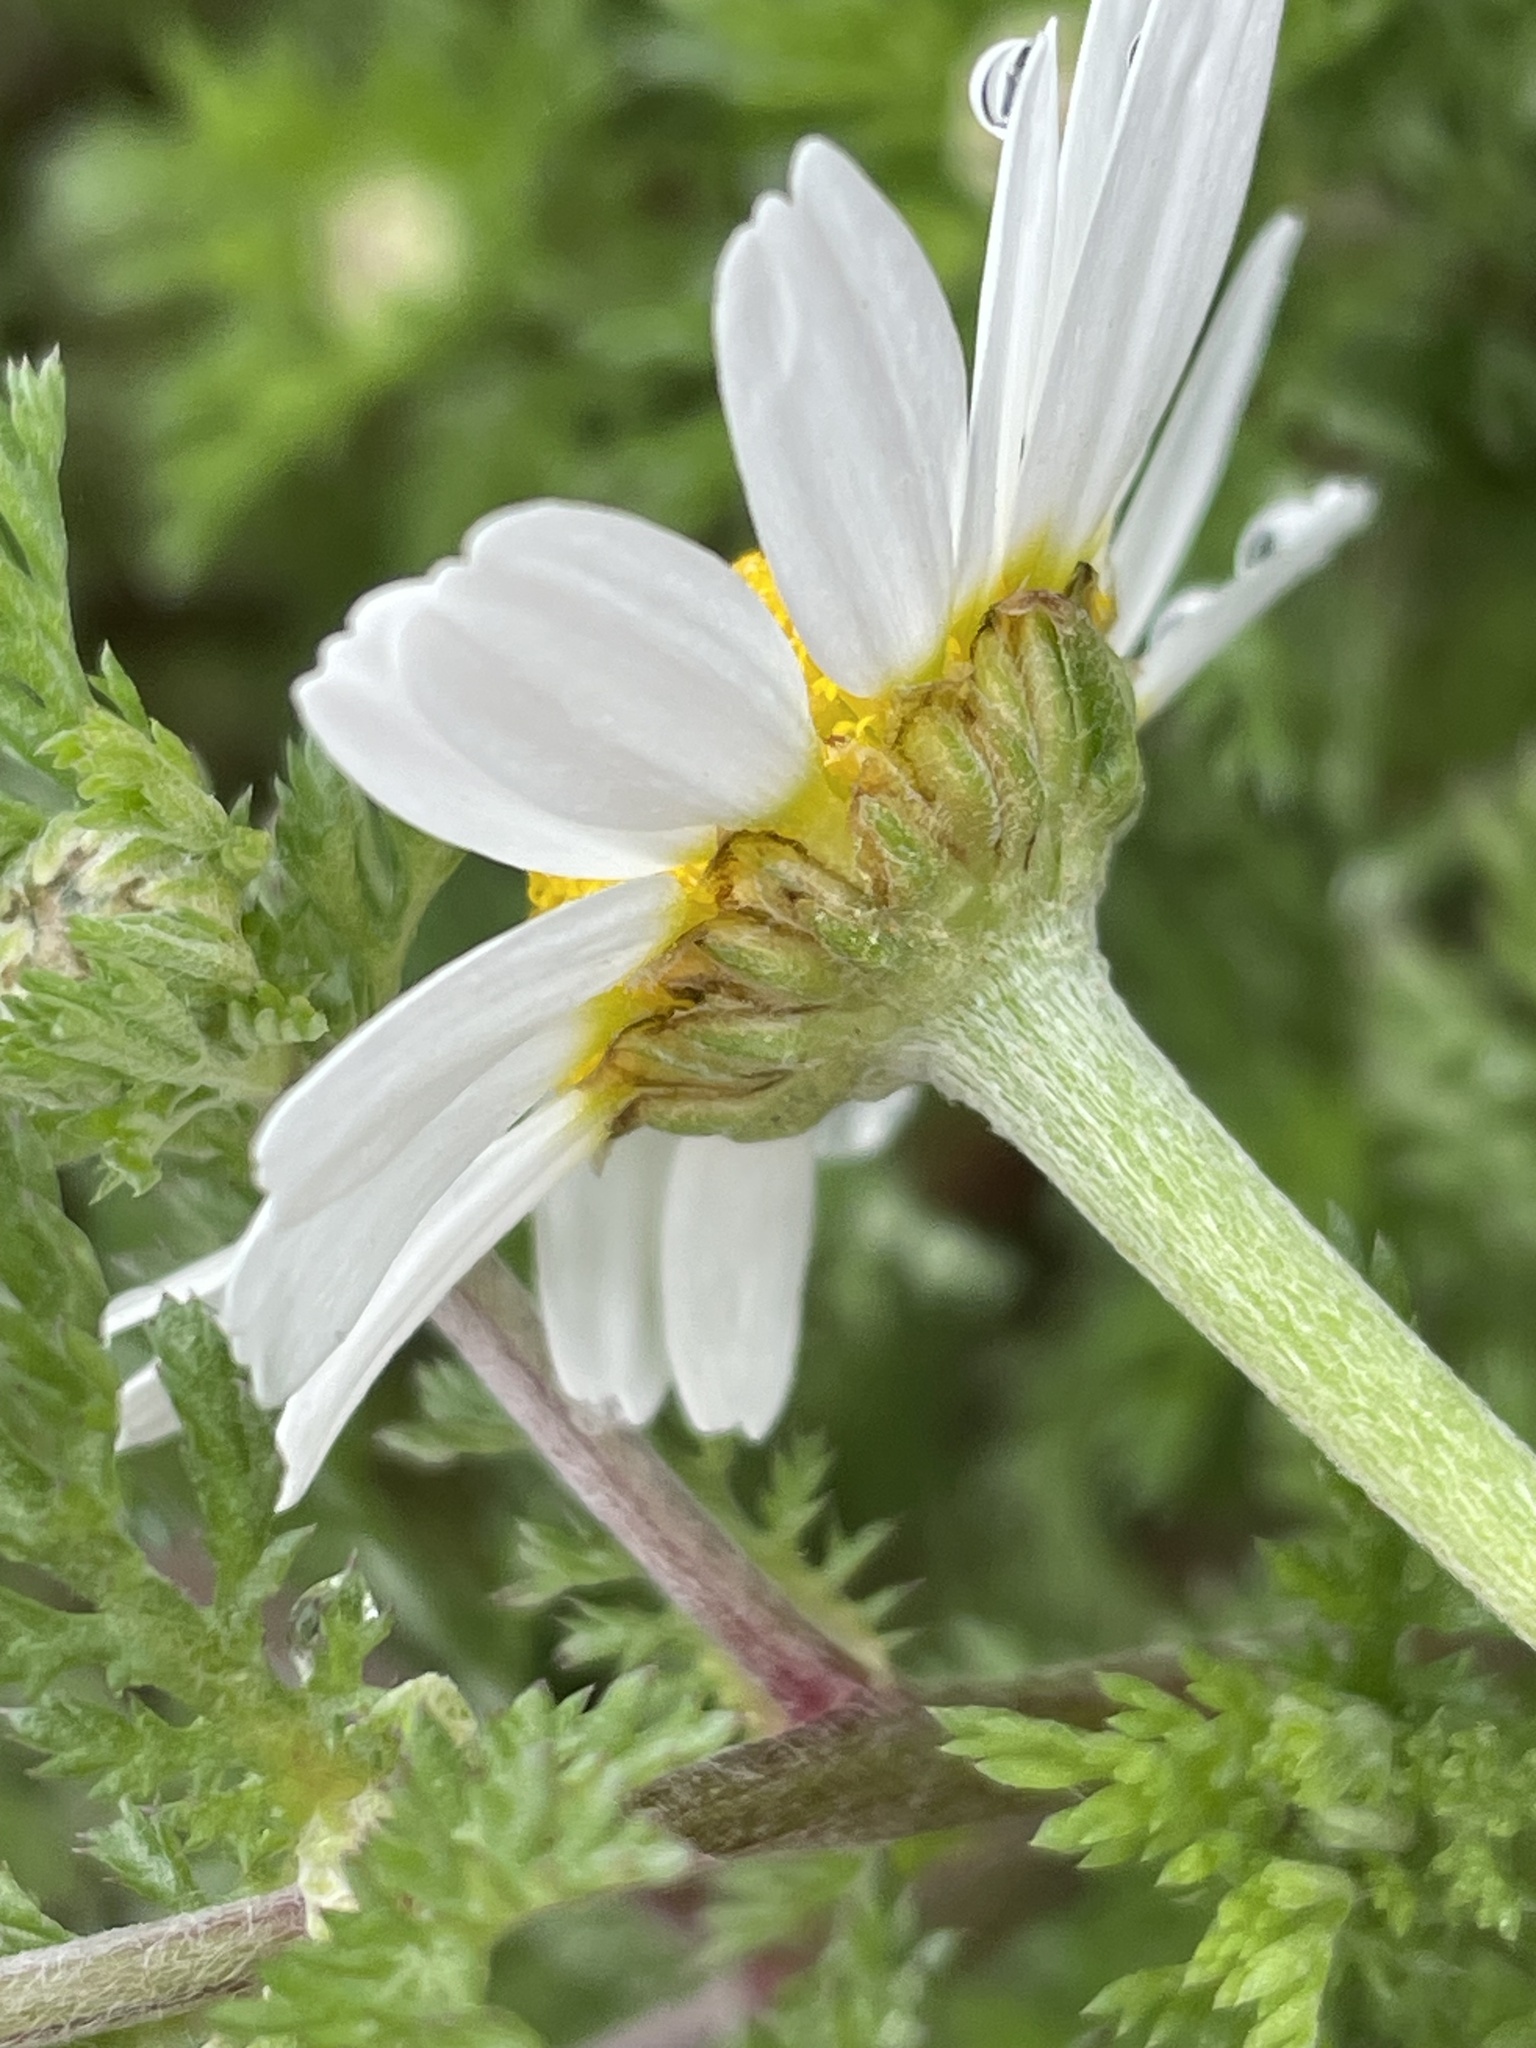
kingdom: Plantae
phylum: Tracheophyta
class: Magnoliopsida
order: Asterales
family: Asteraceae
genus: Anthemis
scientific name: Anthemis arvensis
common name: Corn chamomile
